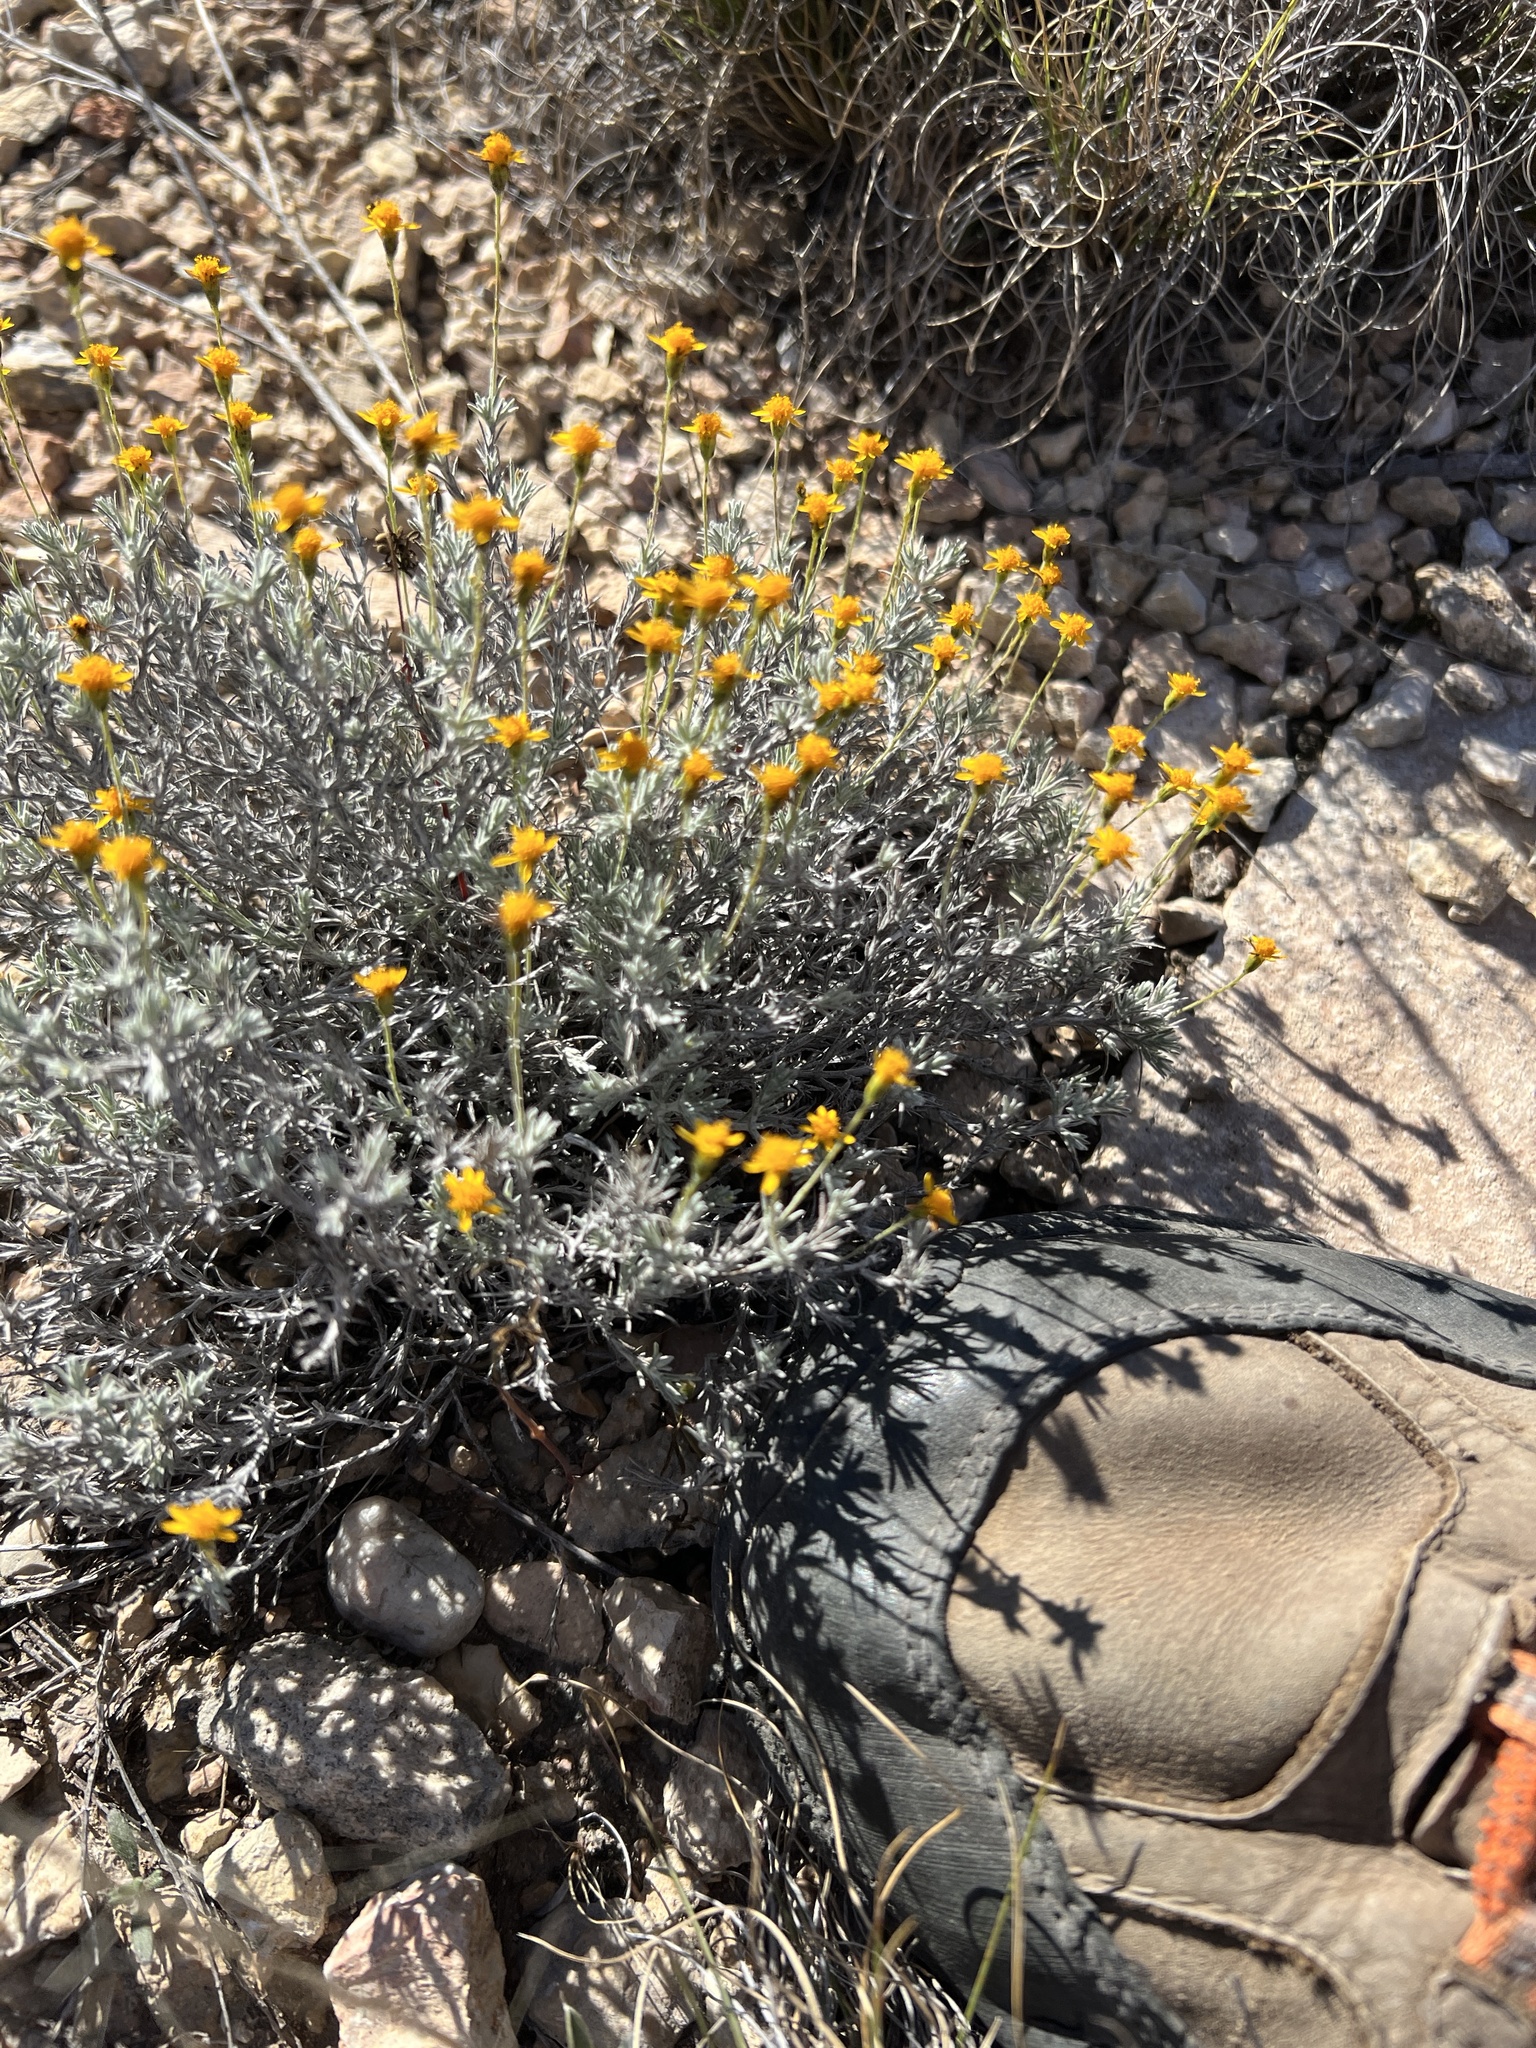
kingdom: Plantae
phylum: Tracheophyta
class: Magnoliopsida
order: Asterales
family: Asteraceae
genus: Thymophylla
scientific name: Thymophylla setifolia
